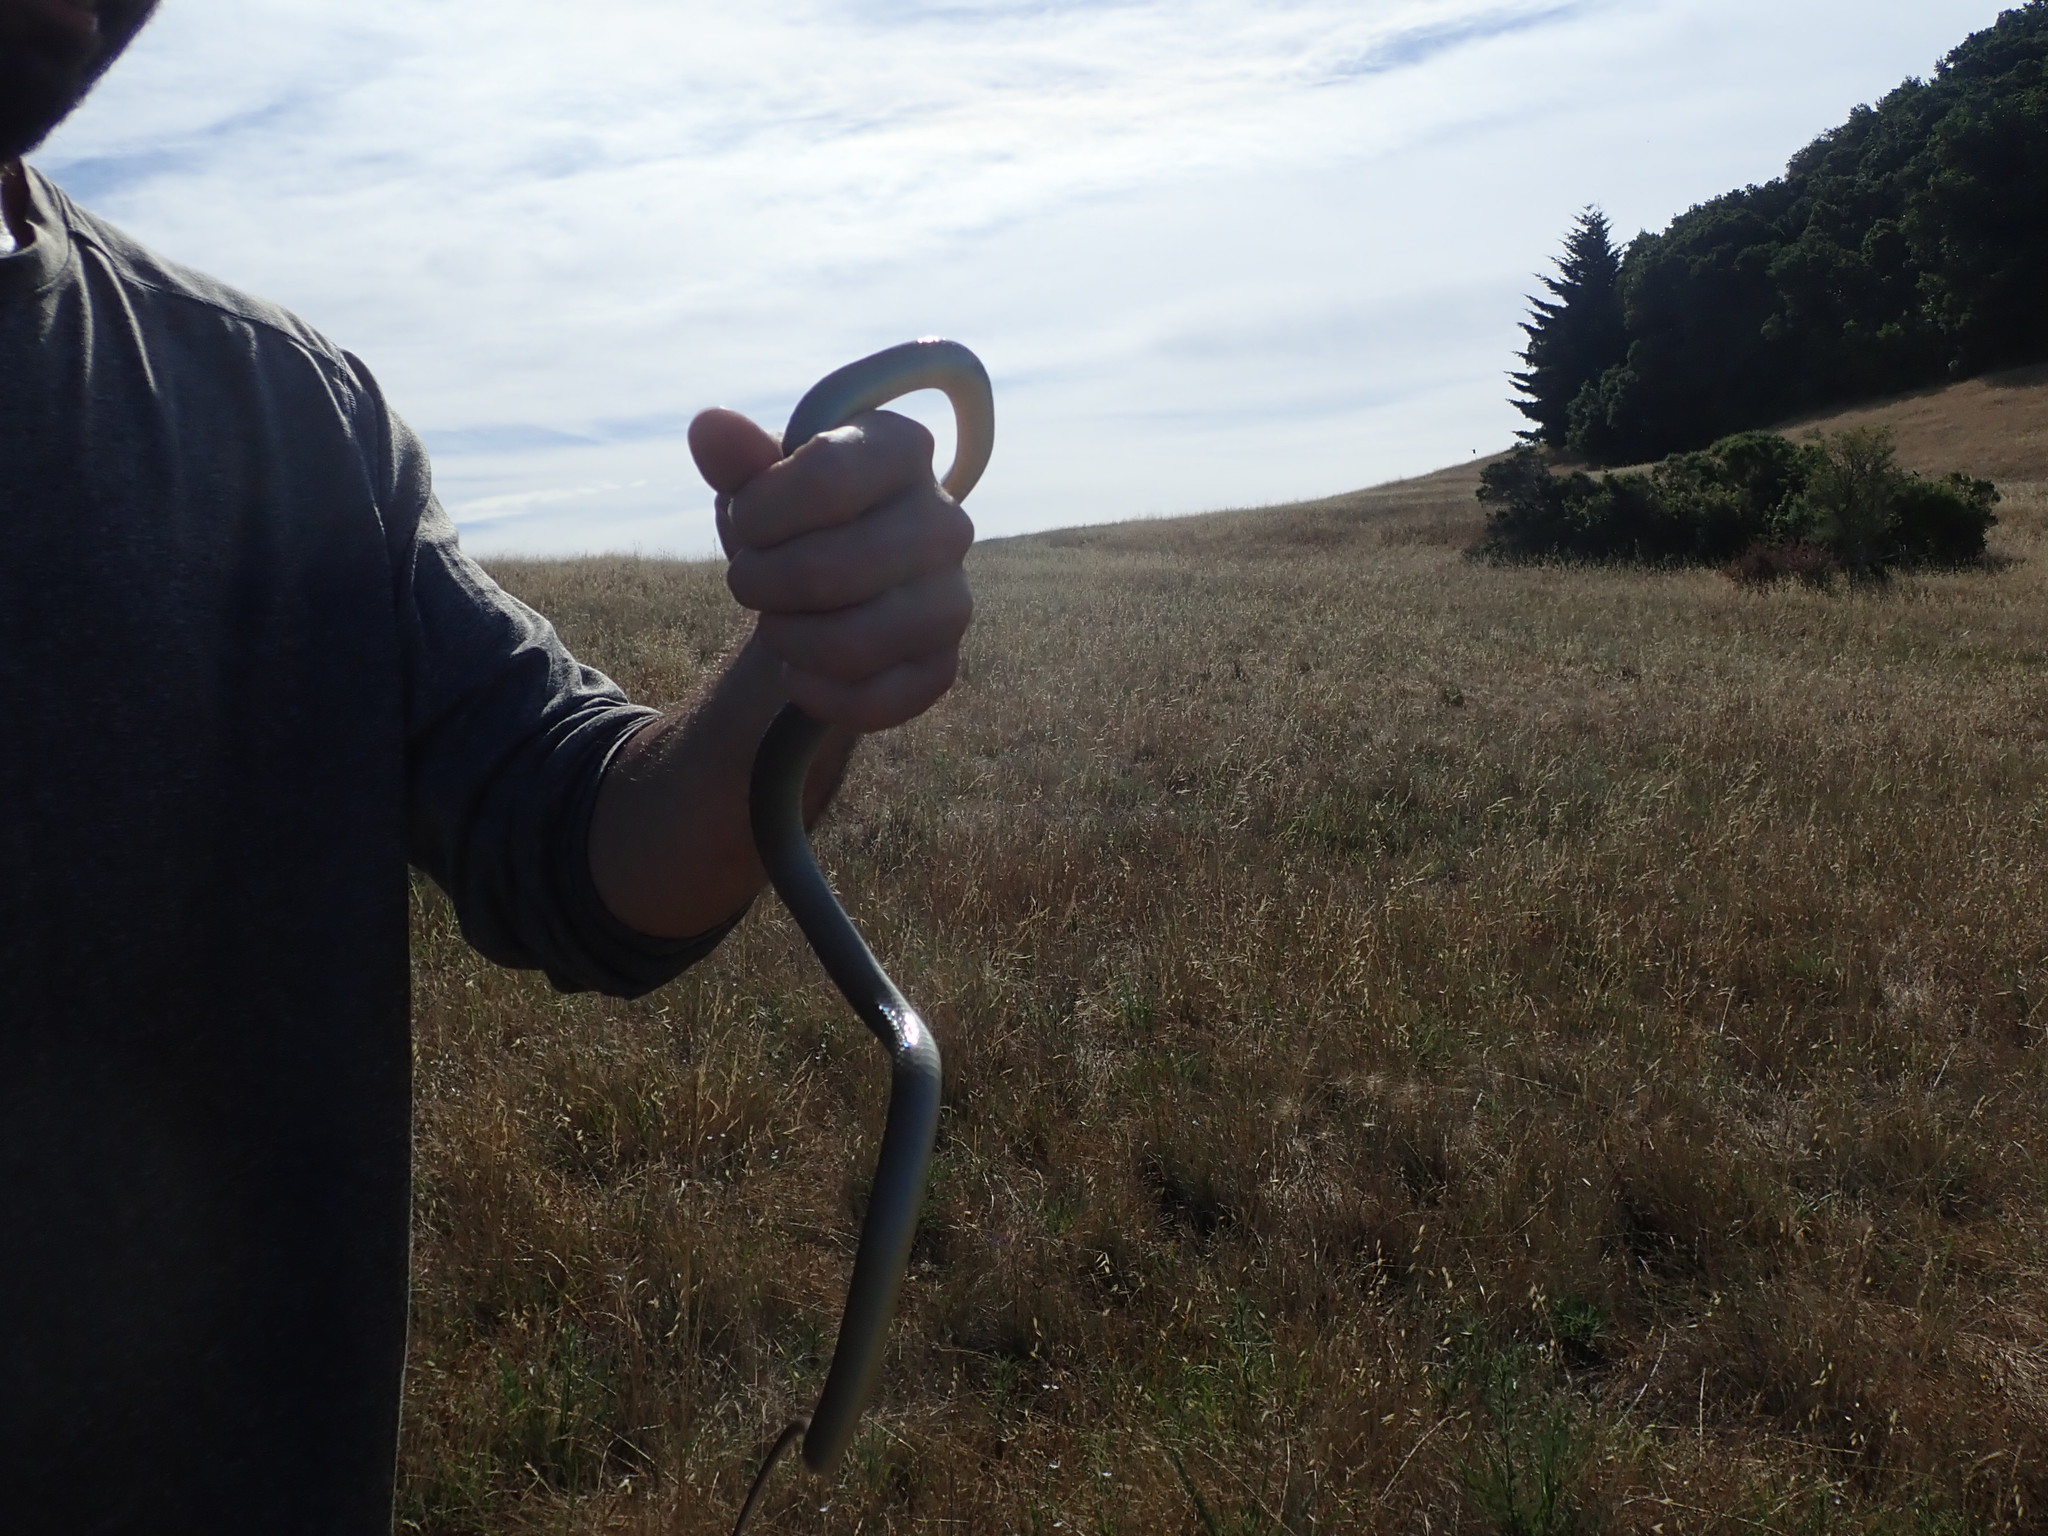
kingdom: Animalia
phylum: Chordata
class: Squamata
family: Colubridae
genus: Coluber
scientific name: Coluber constrictor
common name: Eastern racer
